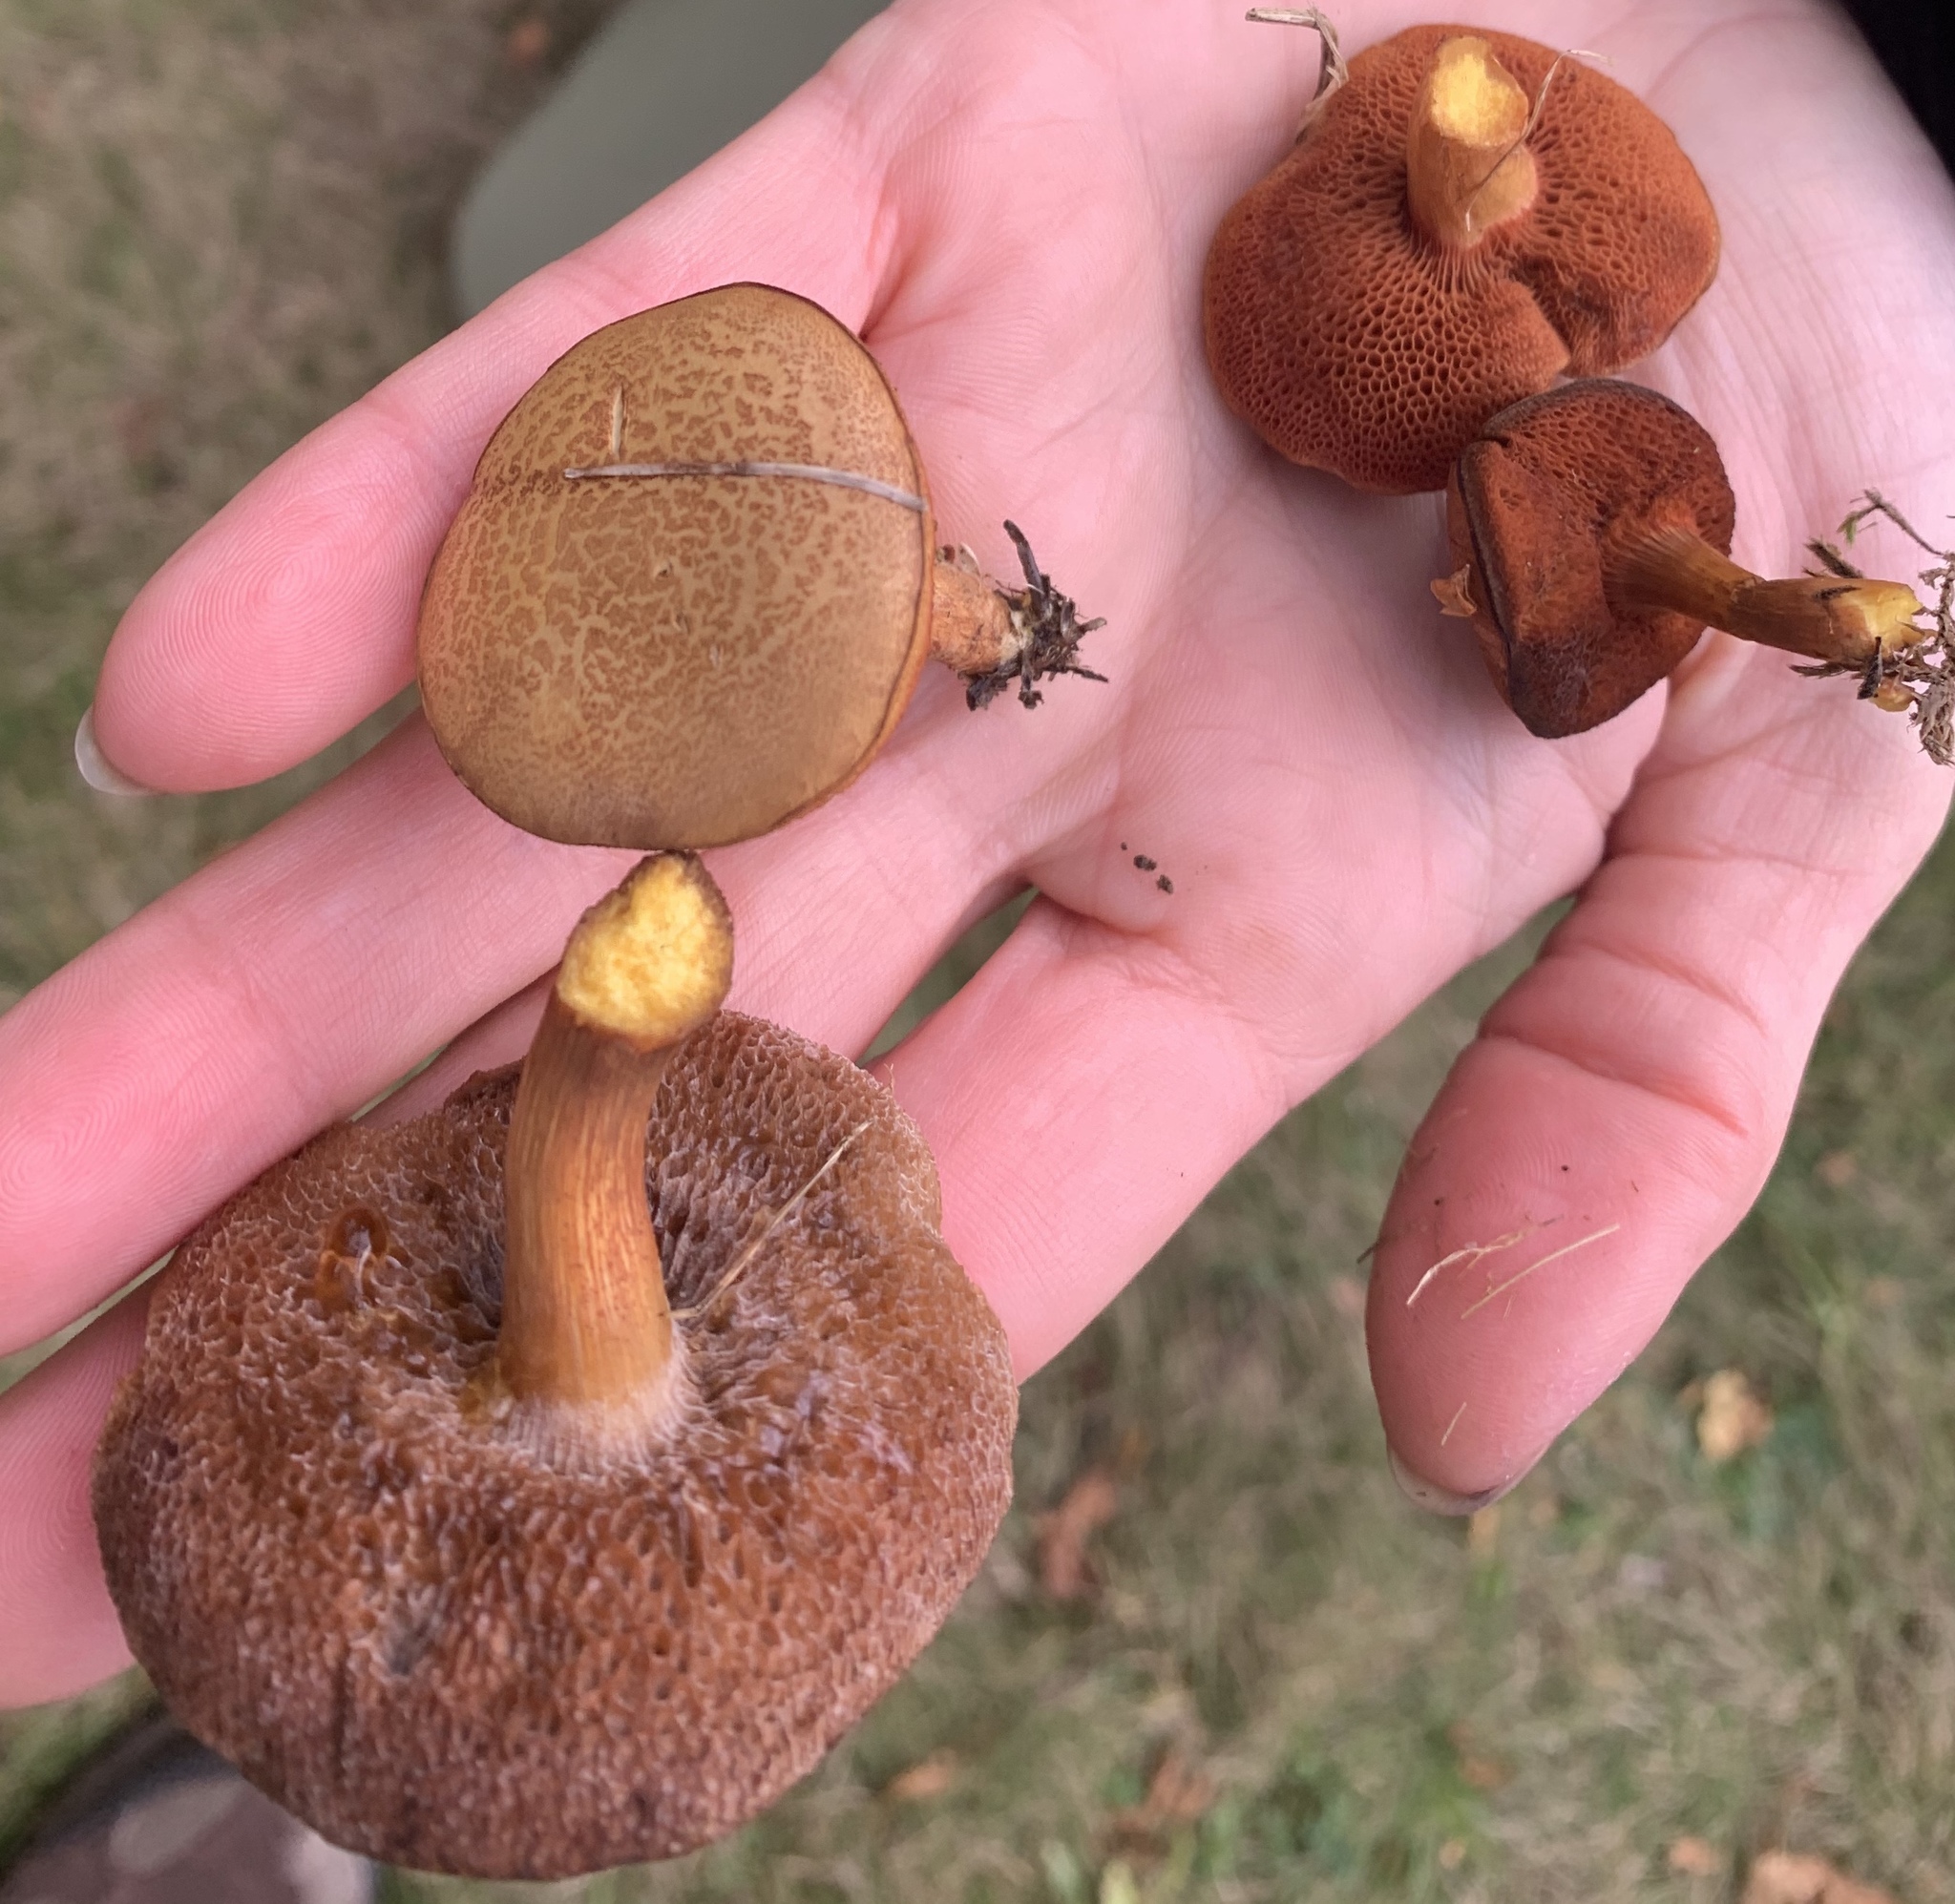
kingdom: Fungi
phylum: Basidiomycota
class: Agaricomycetes
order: Boletales
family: Boletaceae
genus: Chalciporus
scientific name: Chalciporus piperatus
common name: Peppery bolete
